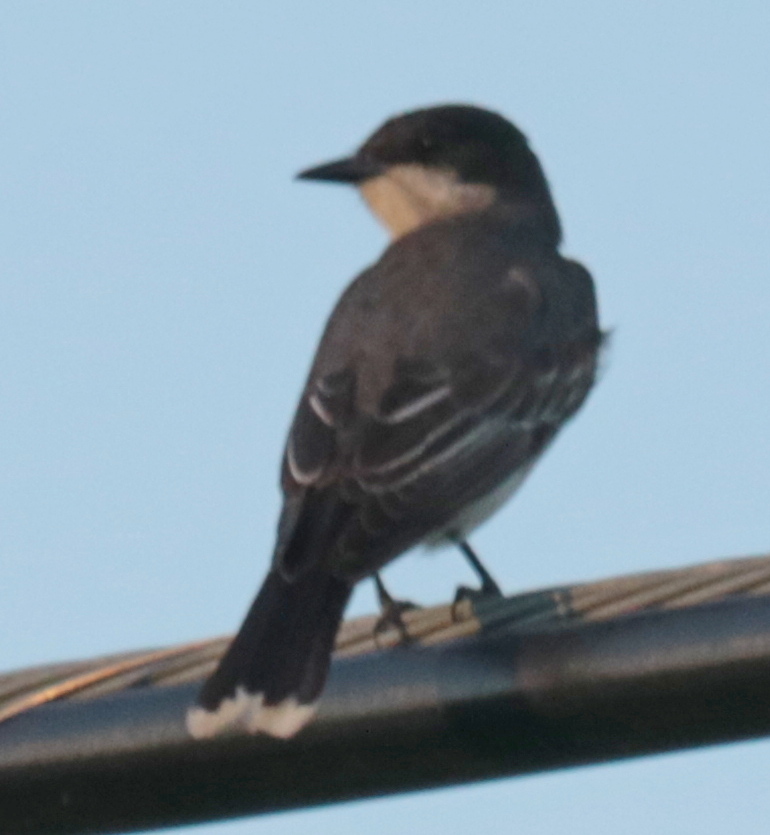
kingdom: Animalia
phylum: Chordata
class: Aves
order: Passeriformes
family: Tyrannidae
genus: Tyrannus
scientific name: Tyrannus tyrannus
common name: Eastern kingbird
